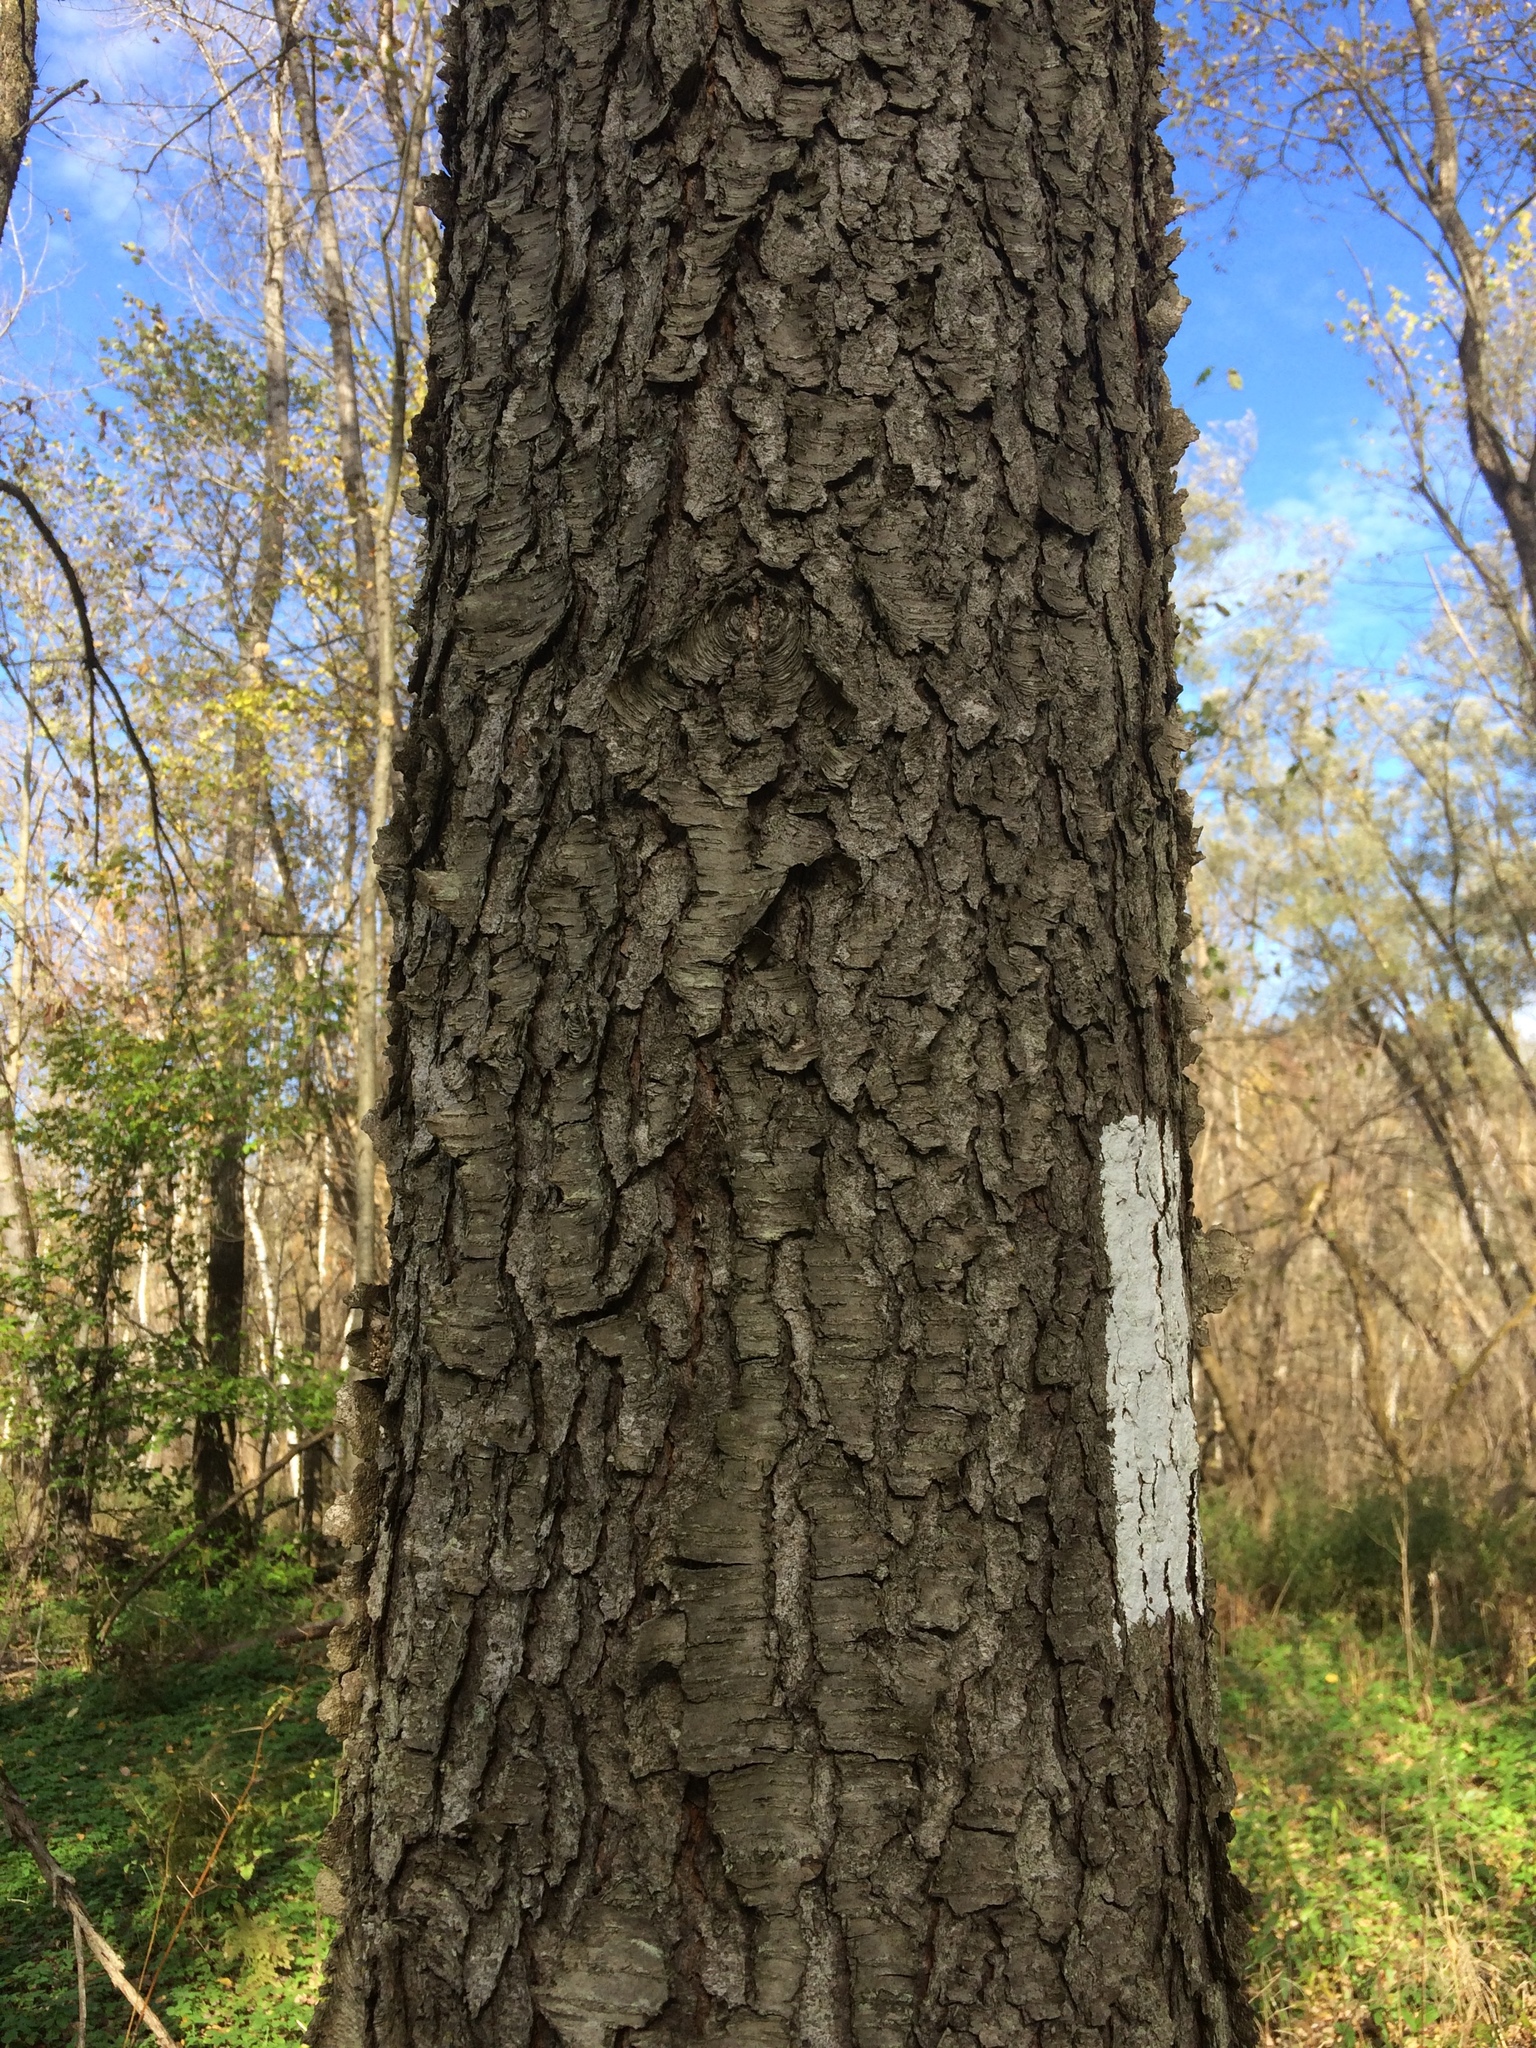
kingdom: Plantae
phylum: Tracheophyta
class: Magnoliopsida
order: Rosales
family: Rosaceae
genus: Prunus
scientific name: Prunus serotina
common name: Black cherry
